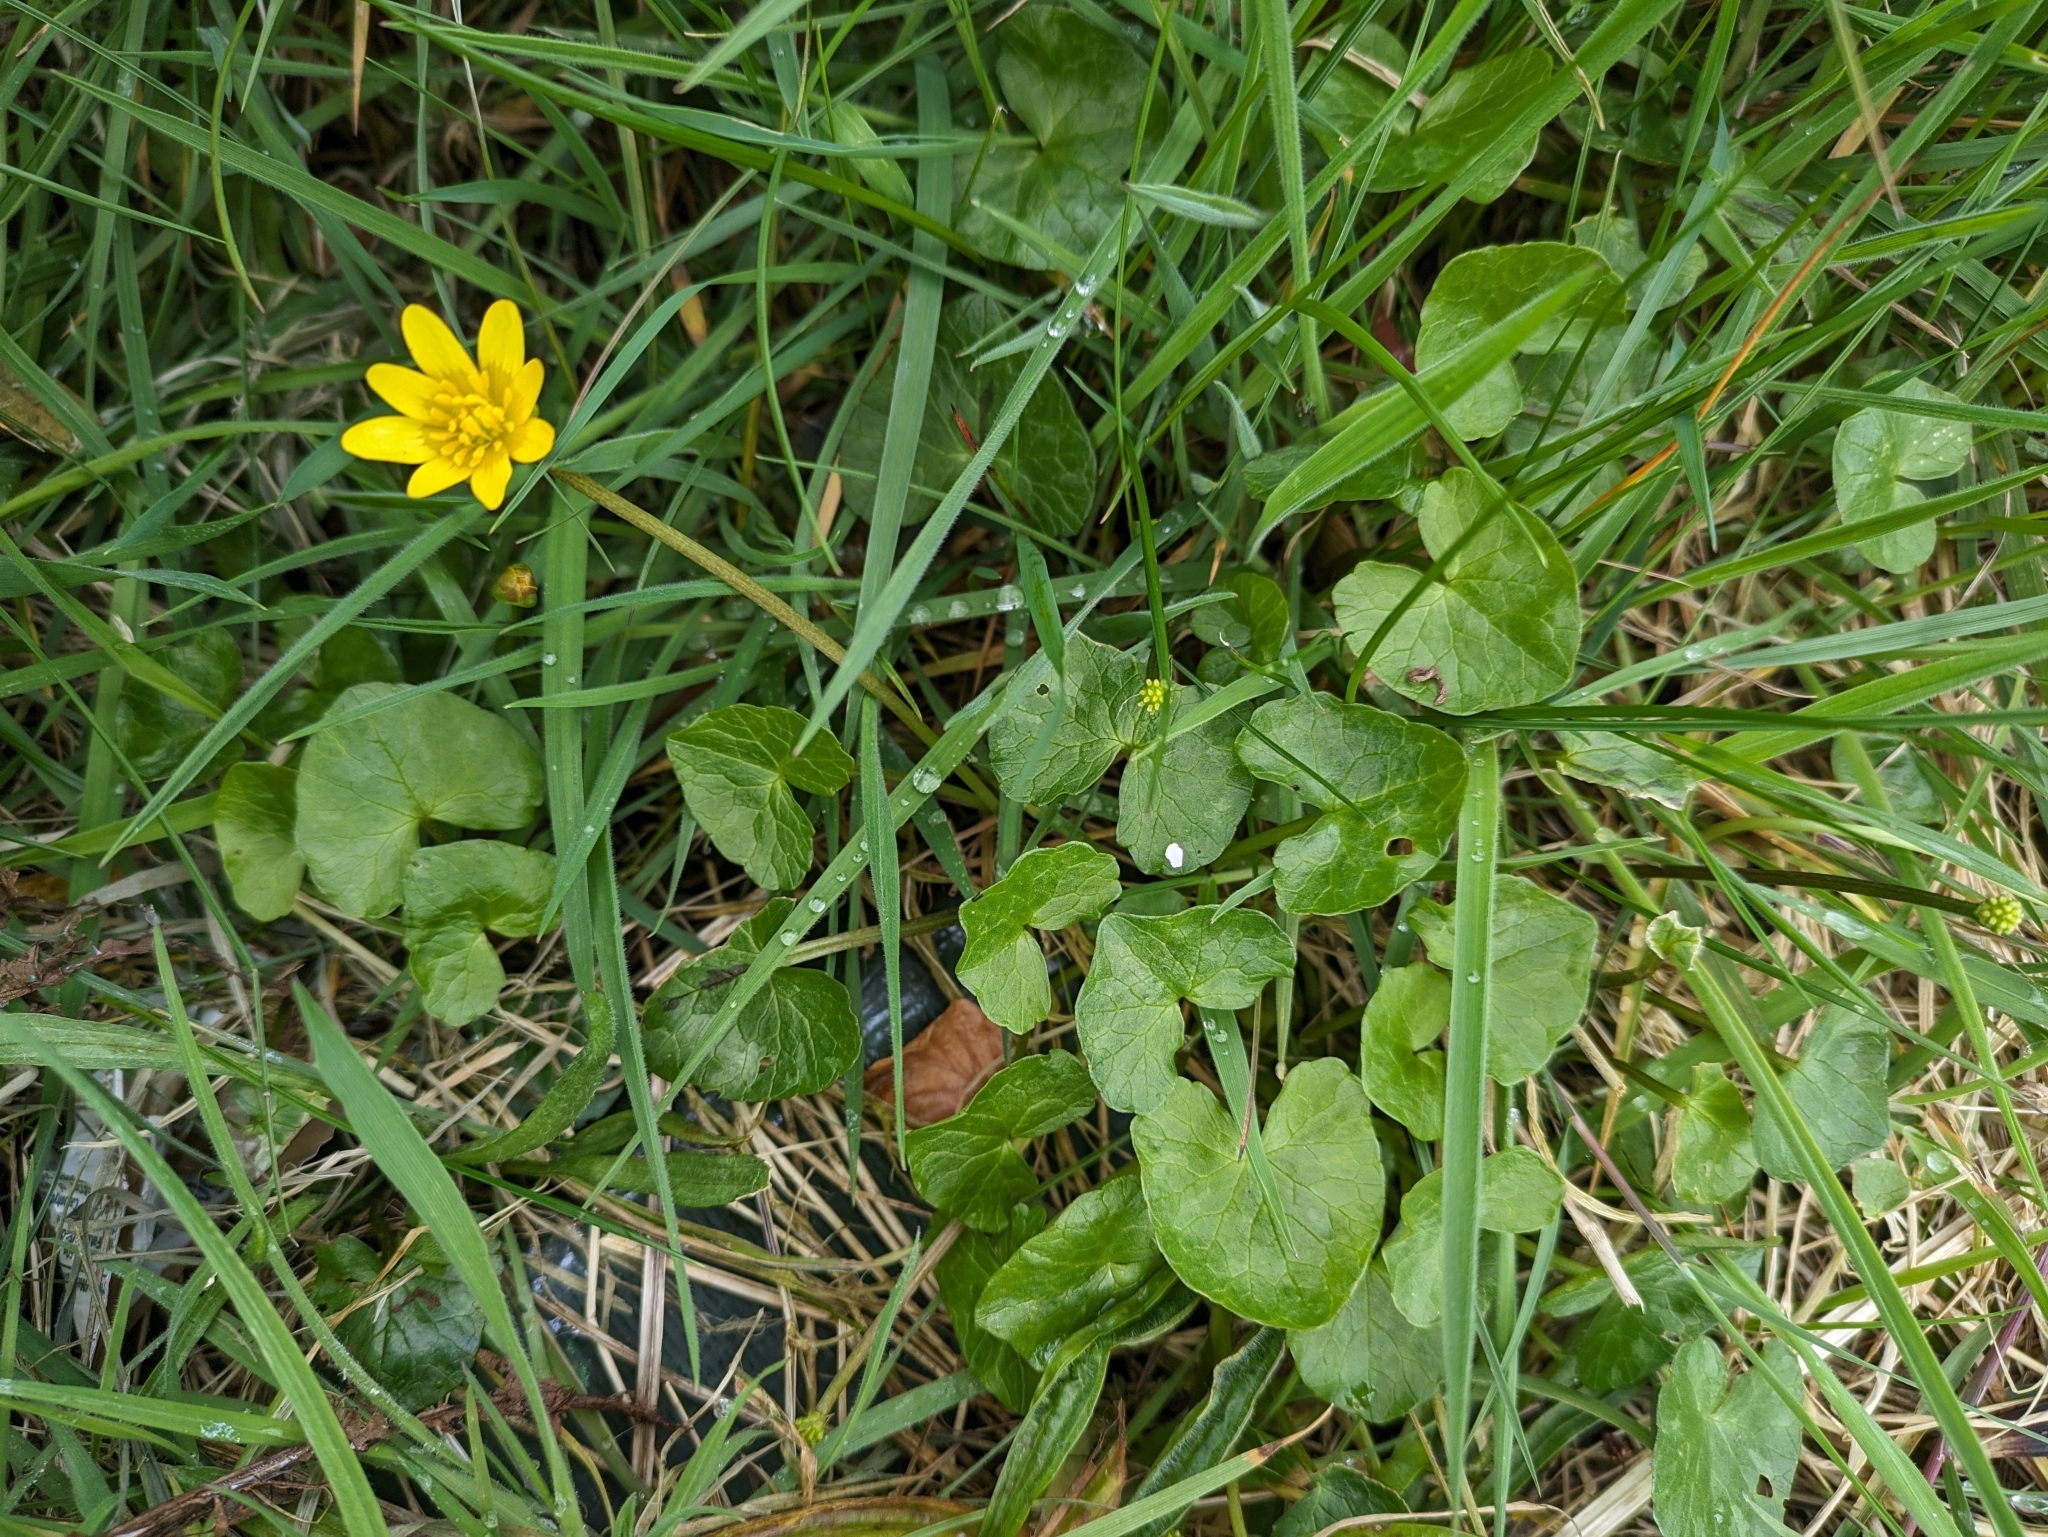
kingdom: Plantae
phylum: Tracheophyta
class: Magnoliopsida
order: Ranunculales
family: Ranunculaceae
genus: Ficaria
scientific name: Ficaria verna
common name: Lesser celandine
